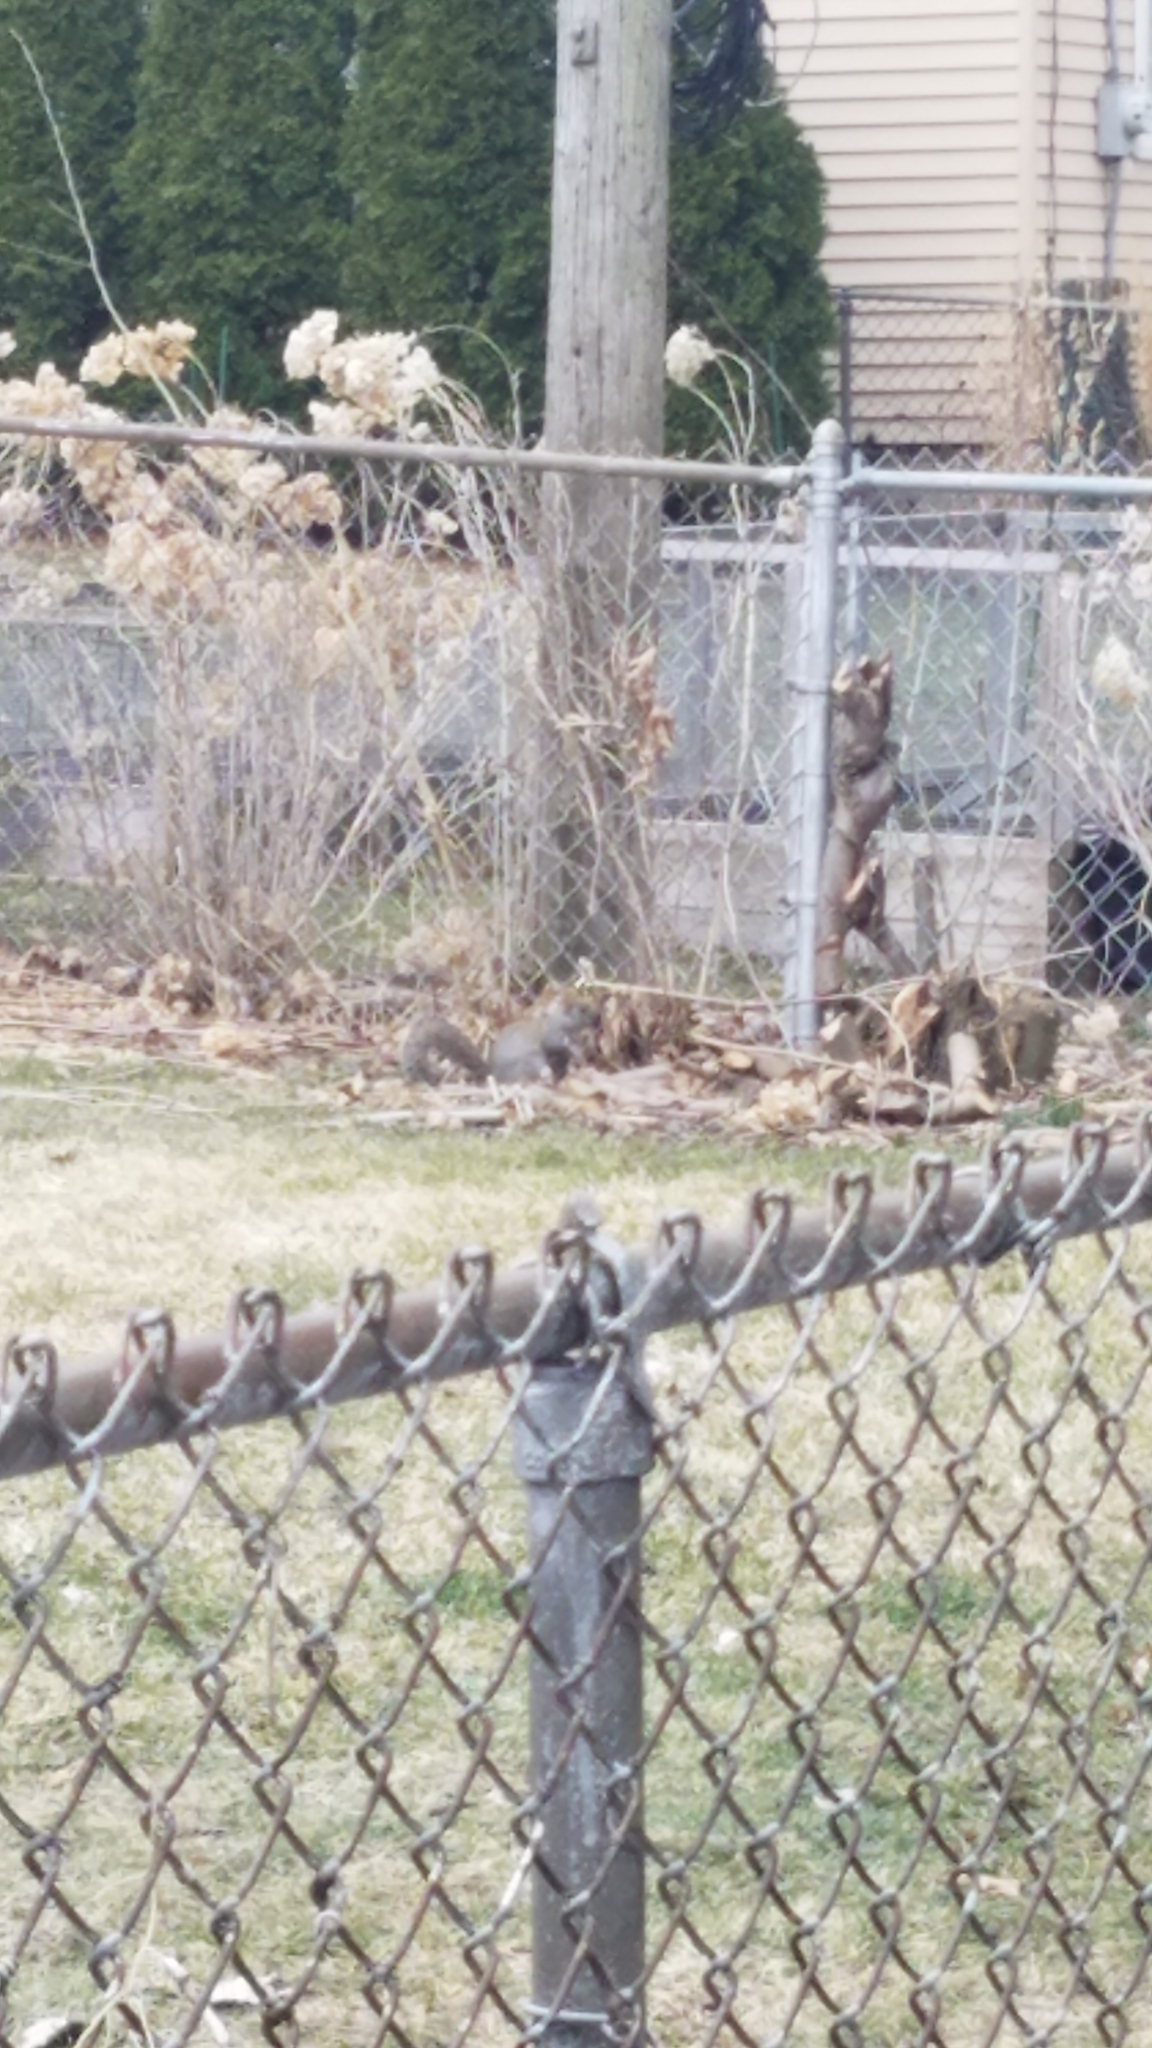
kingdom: Animalia
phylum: Chordata
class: Mammalia
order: Rodentia
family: Sciuridae
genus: Sciurus
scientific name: Sciurus carolinensis
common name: Eastern gray squirrel
